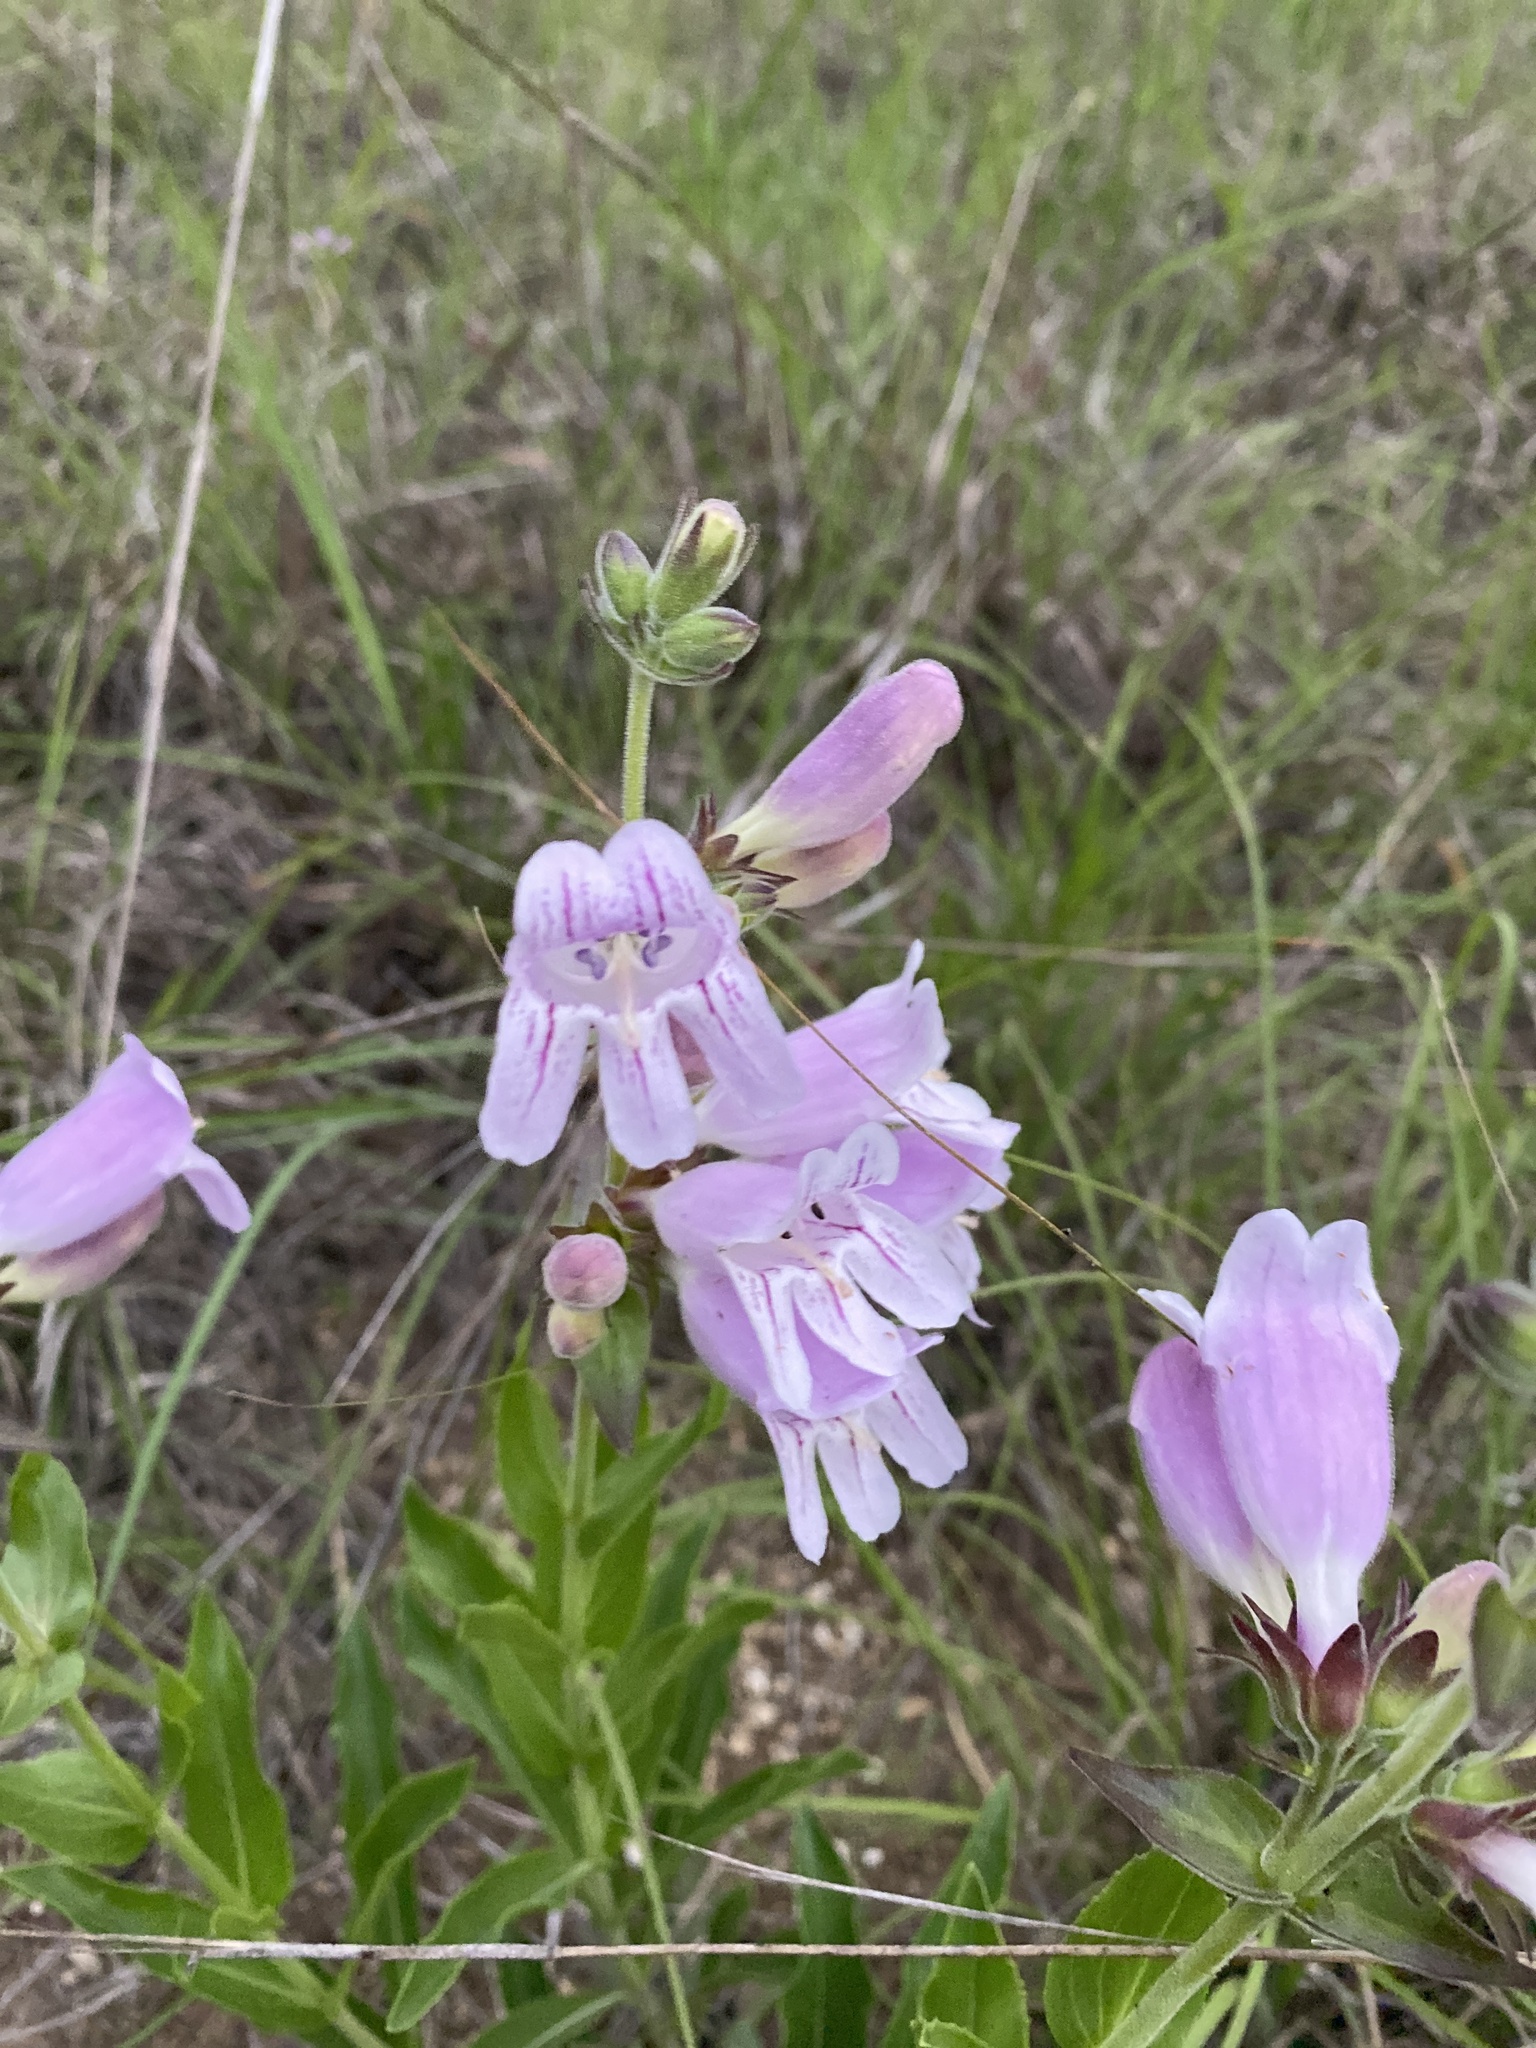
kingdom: Plantae
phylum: Tracheophyta
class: Magnoliopsida
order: Lamiales
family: Plantaginaceae
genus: Penstemon
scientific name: Penstemon cobaea
